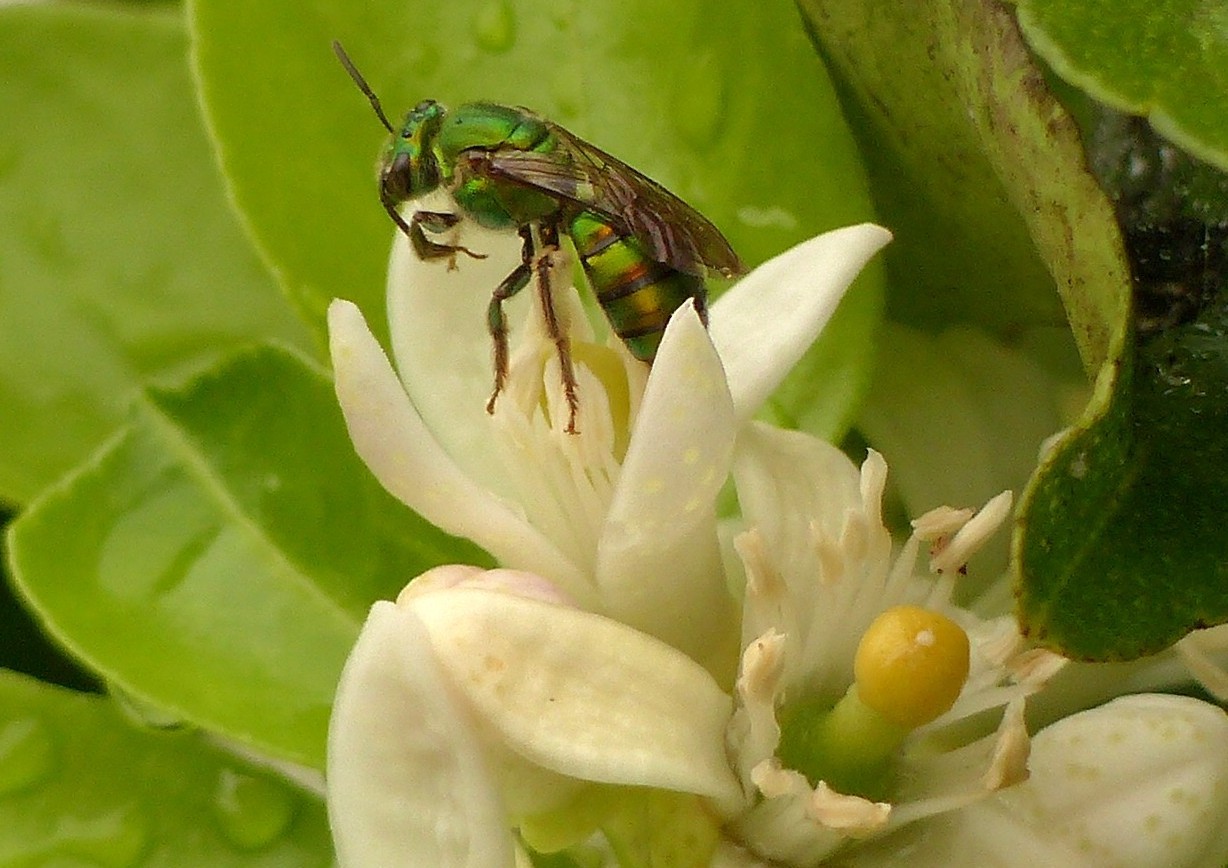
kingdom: Animalia
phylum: Arthropoda
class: Insecta
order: Hymenoptera
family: Halictidae
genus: Pseudaugochlora
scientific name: Pseudaugochlora graminea
